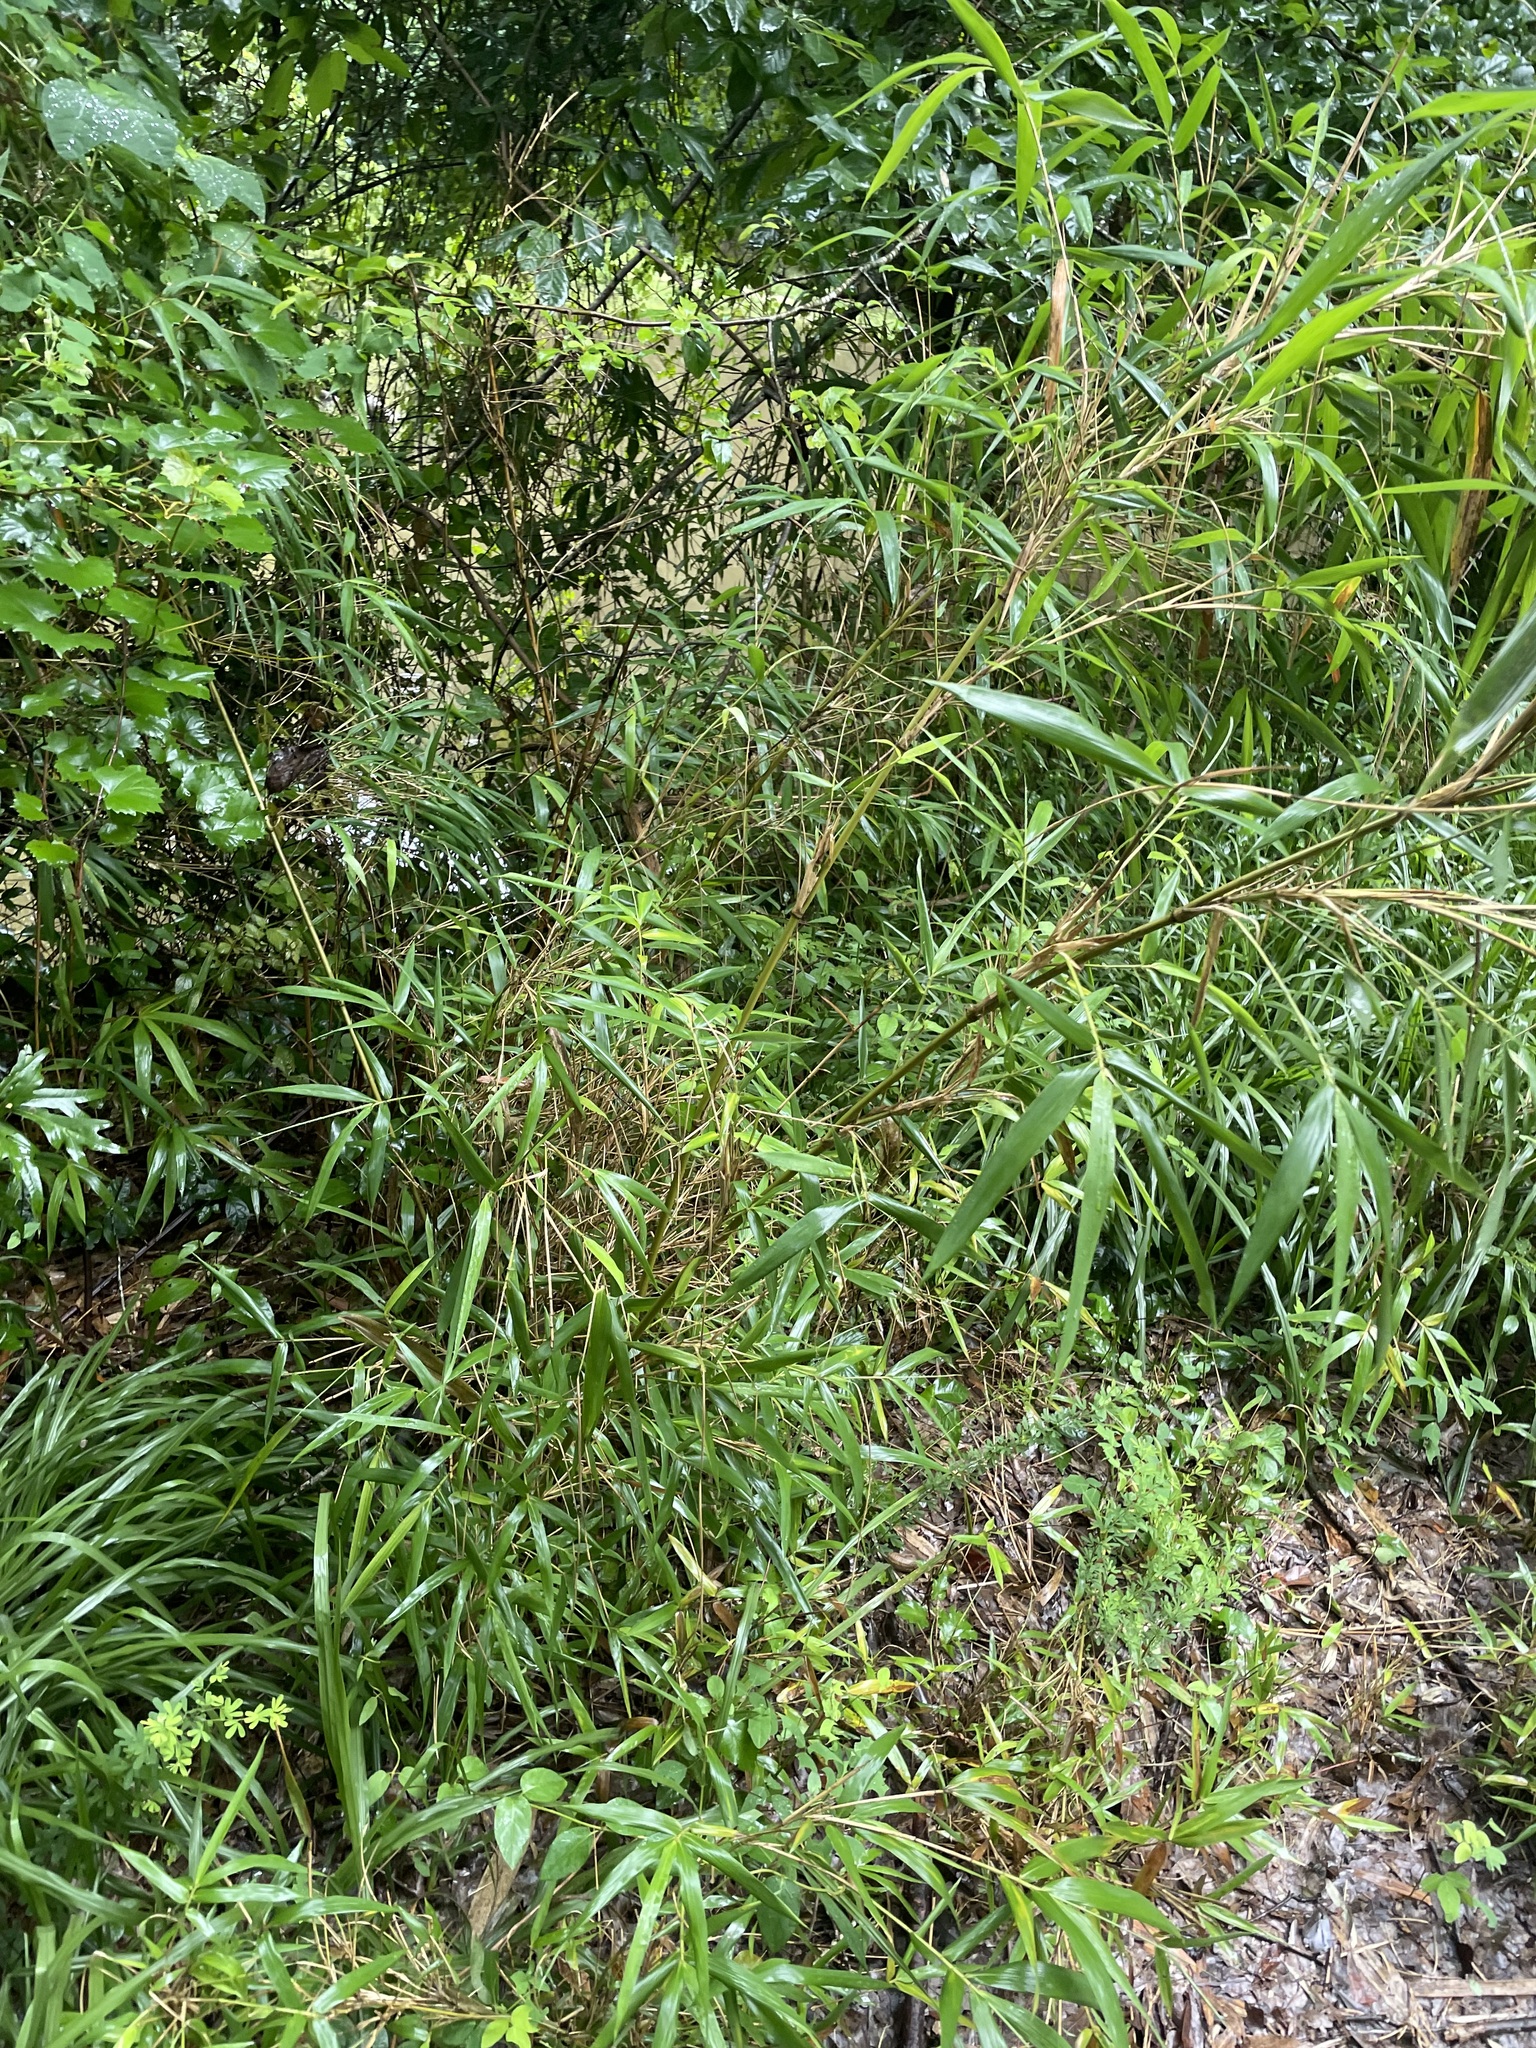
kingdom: Plantae
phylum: Tracheophyta
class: Liliopsida
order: Poales
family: Poaceae
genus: Arundinaria
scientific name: Arundinaria gigantea
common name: Giant cane
